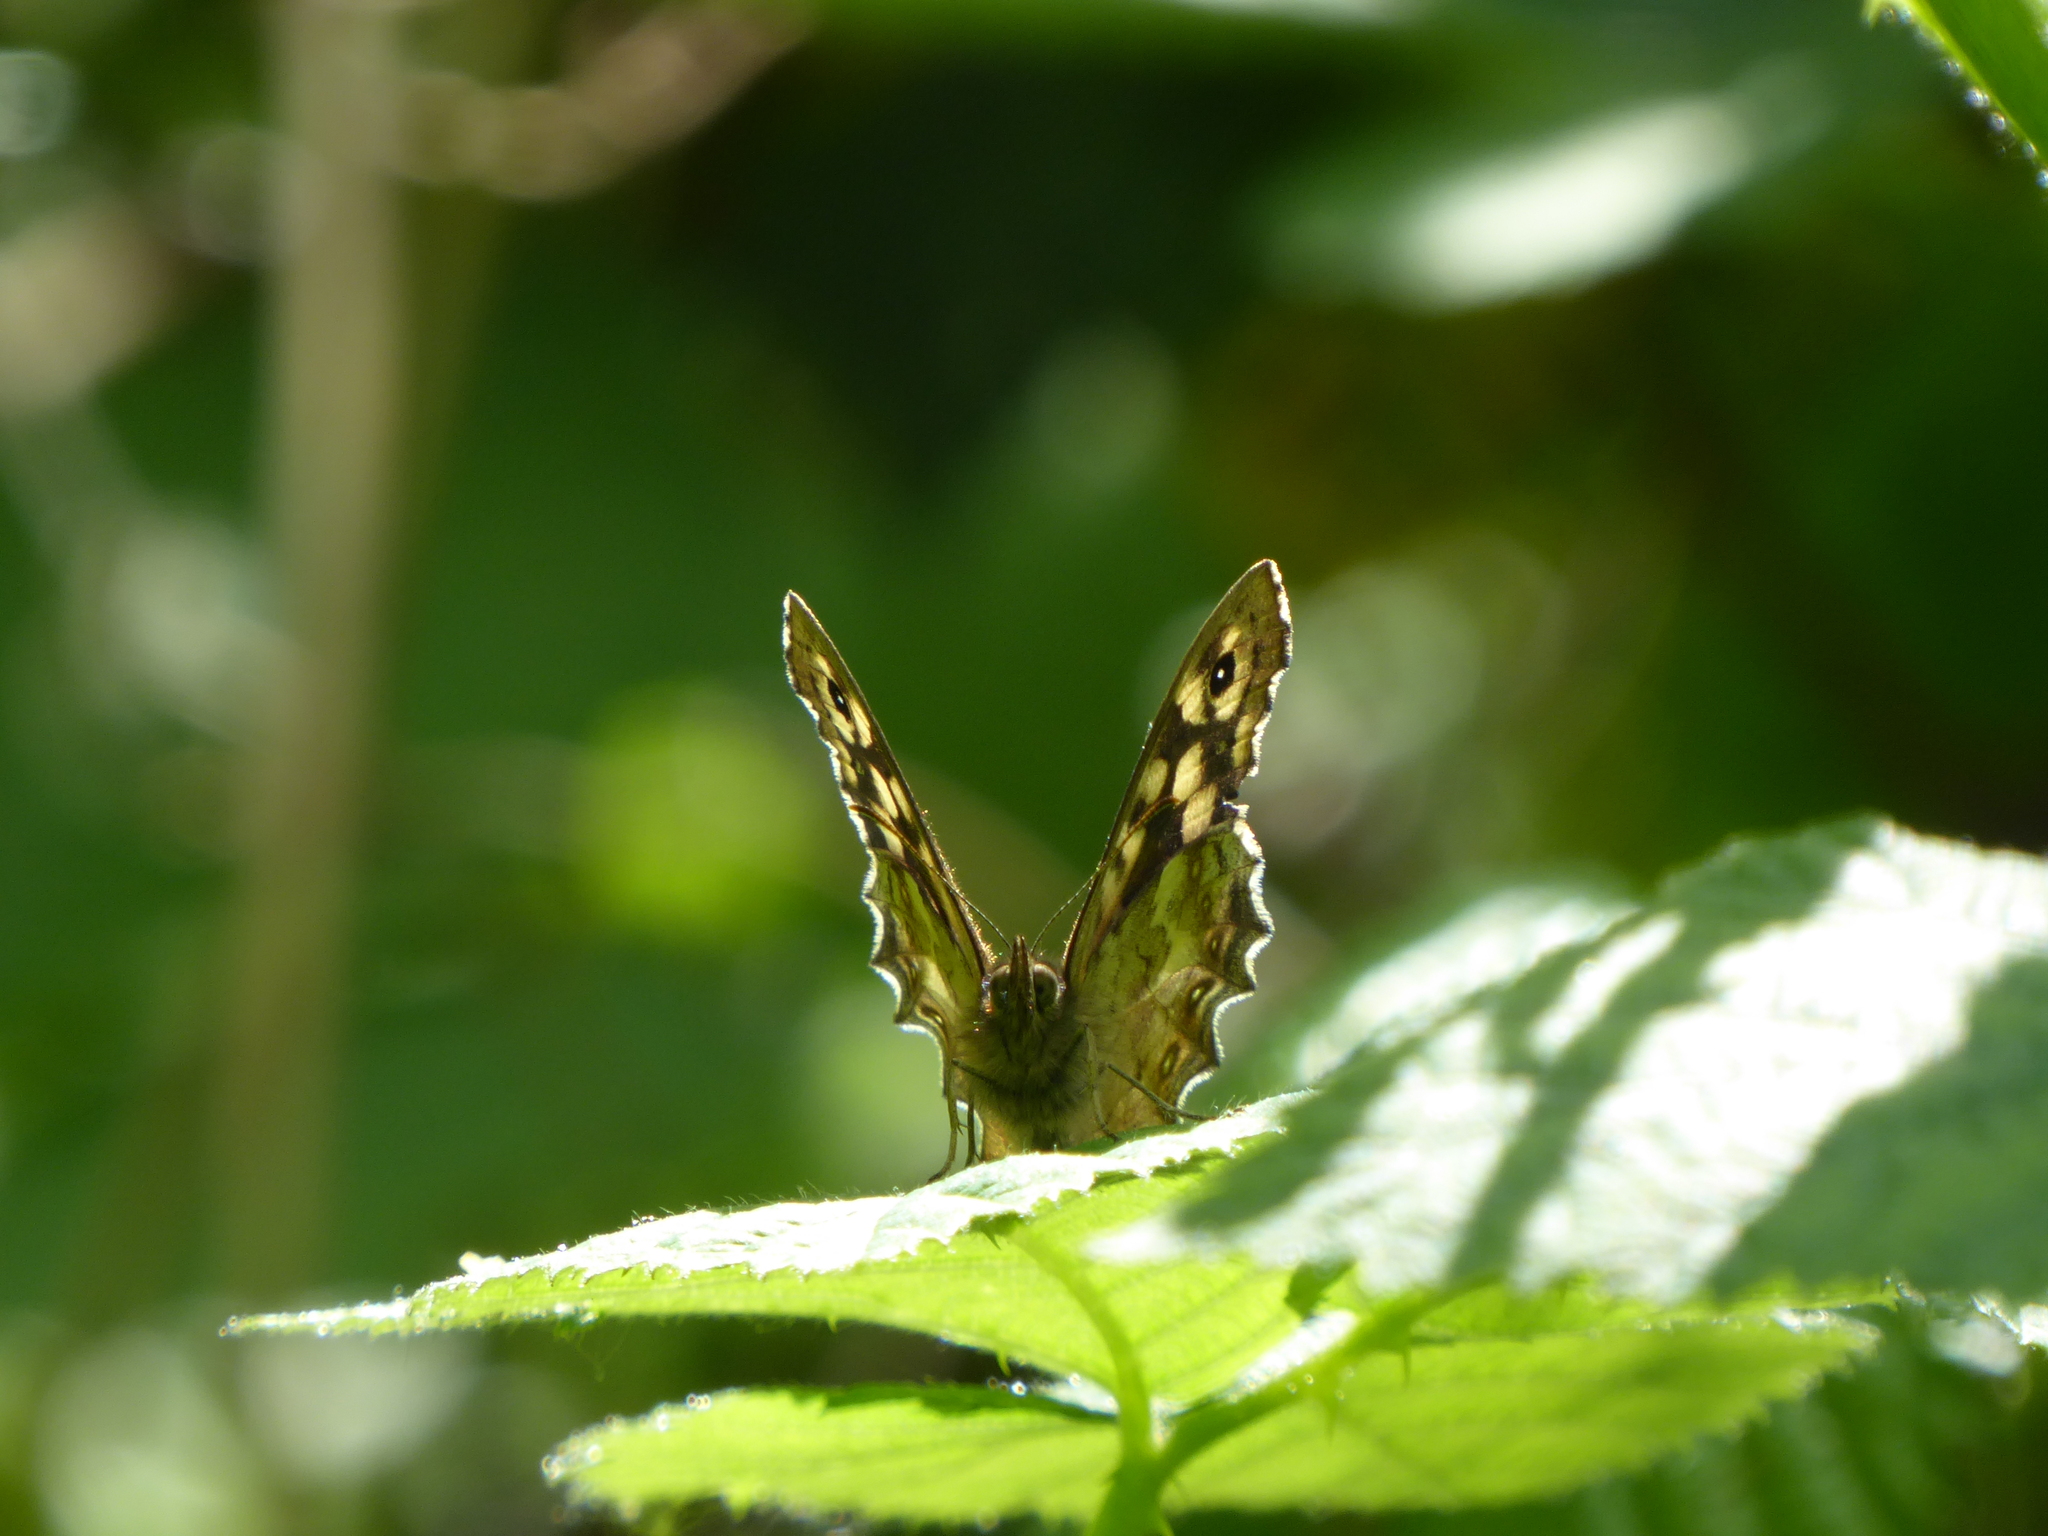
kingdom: Animalia
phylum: Arthropoda
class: Insecta
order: Lepidoptera
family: Nymphalidae
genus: Pararge
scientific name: Pararge aegeria
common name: Speckled wood
